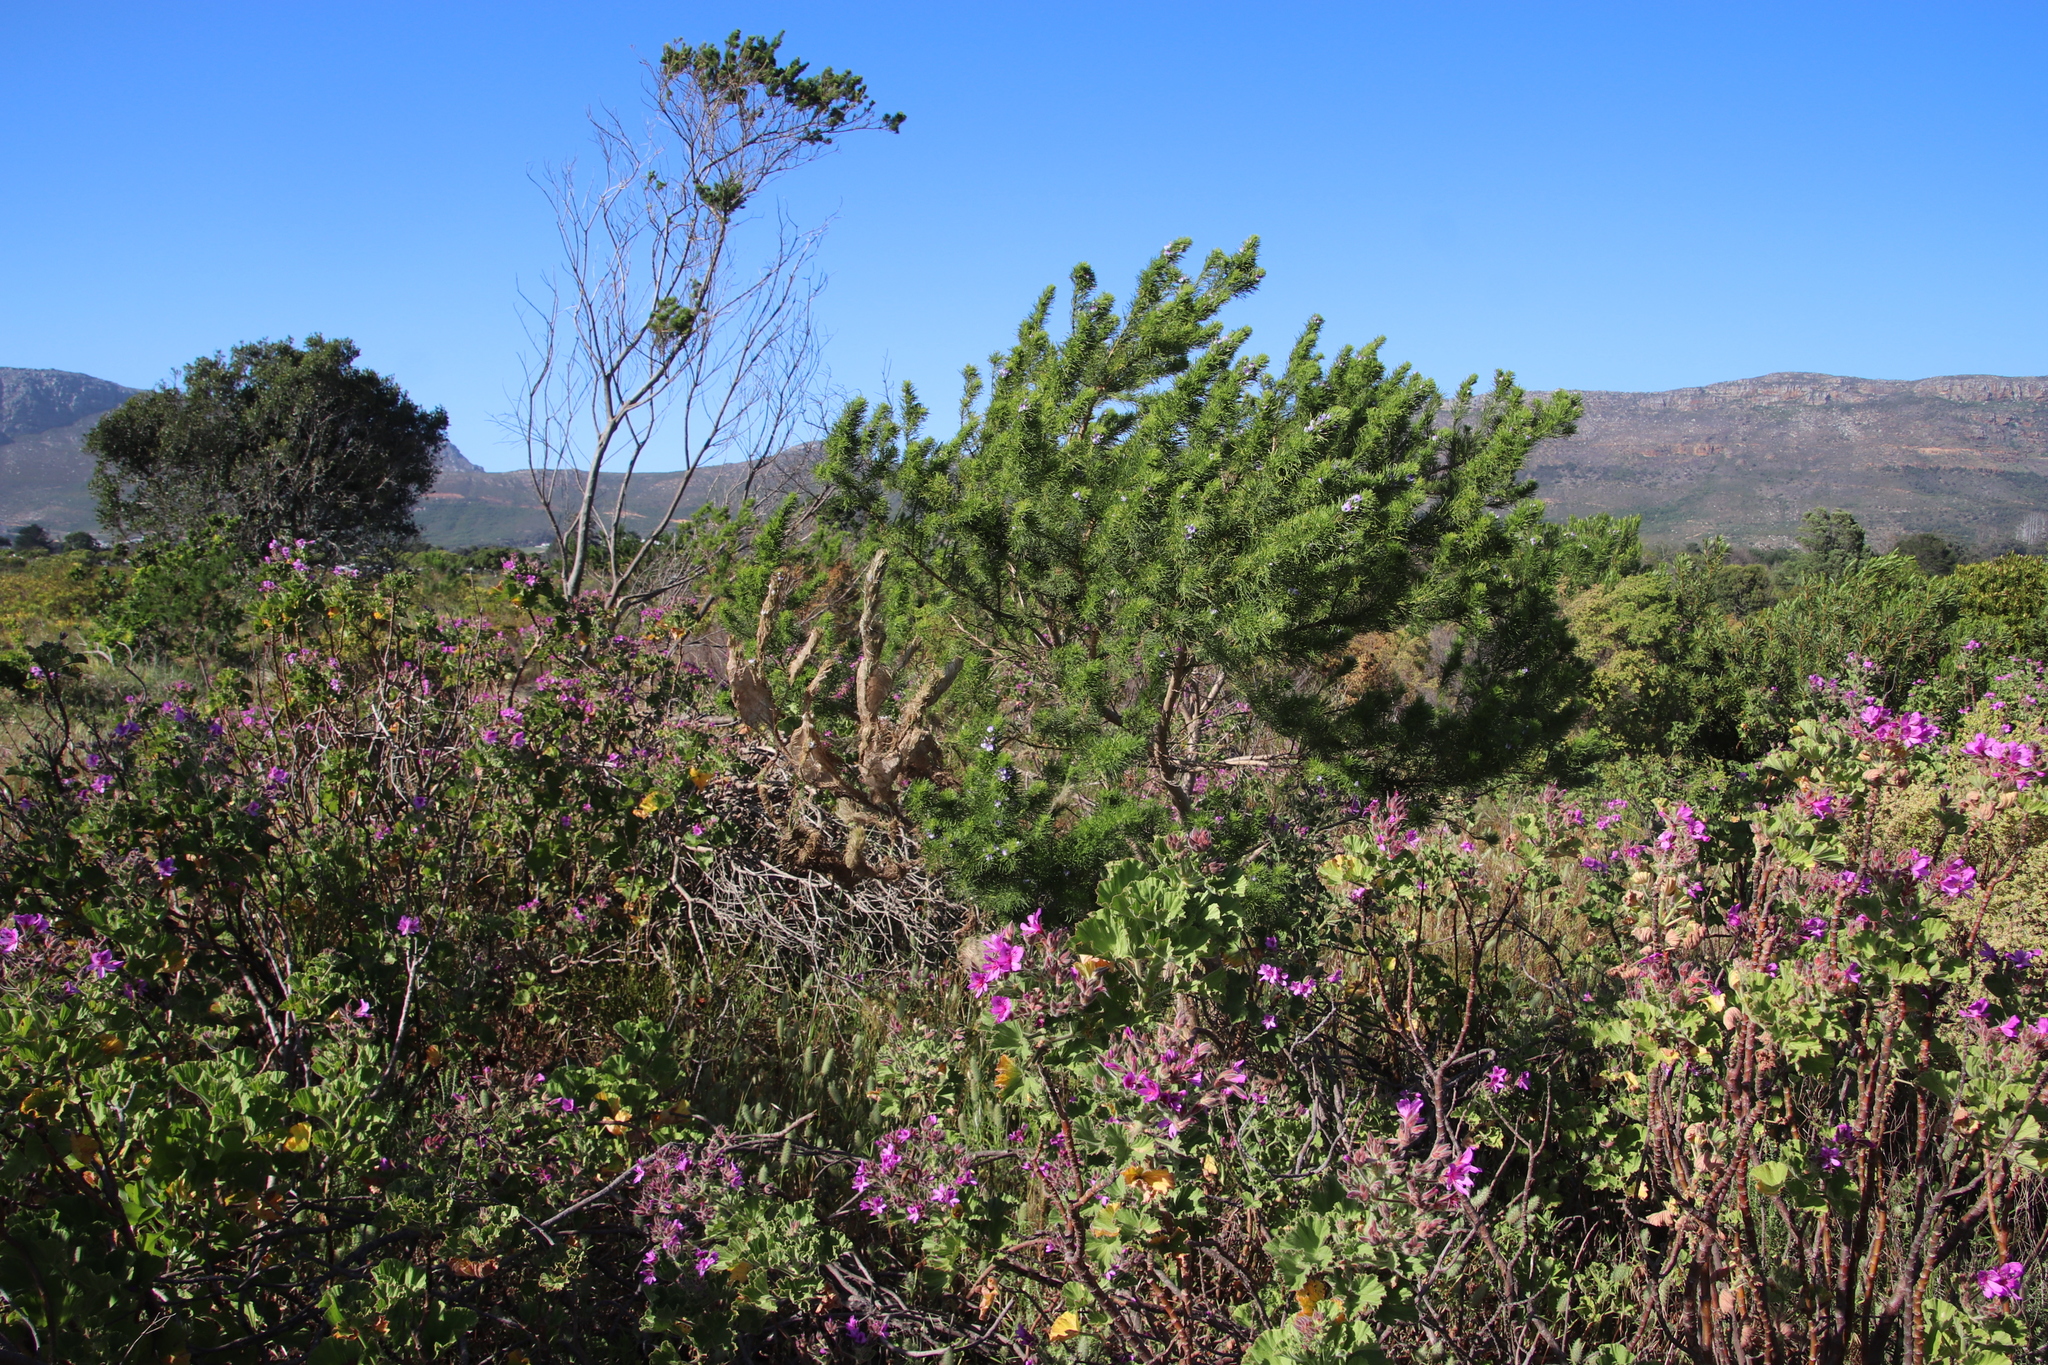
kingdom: Plantae
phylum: Tracheophyta
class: Magnoliopsida
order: Fabales
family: Fabaceae
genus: Psoralea
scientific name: Psoralea pinnata
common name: African scurfpea
